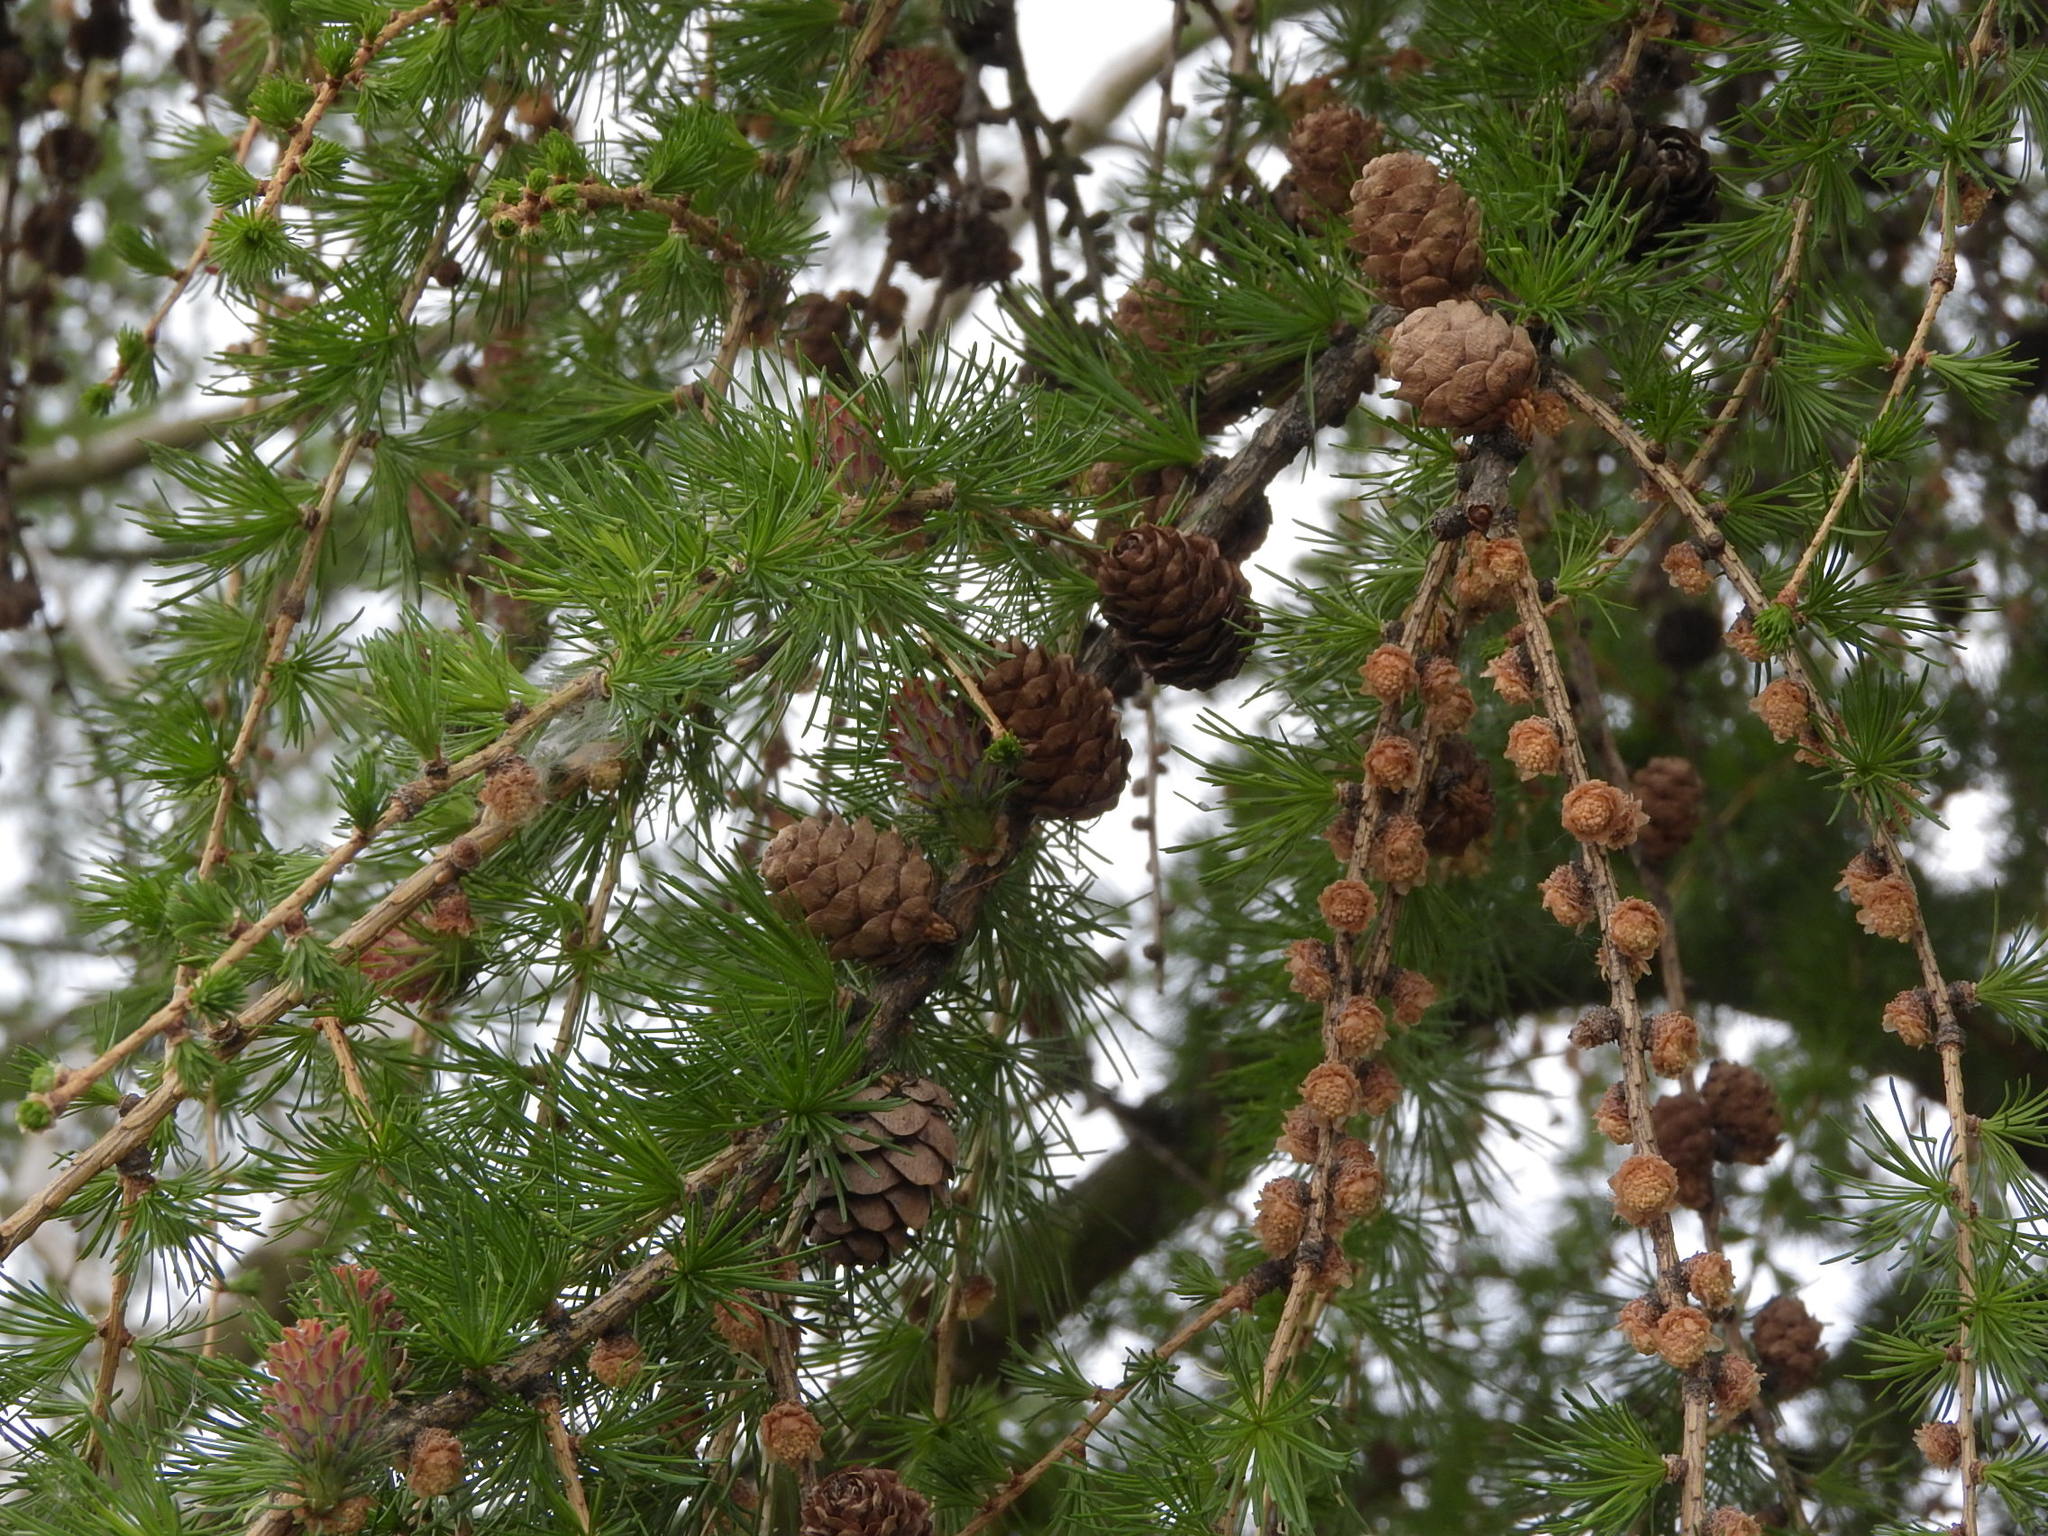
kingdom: Plantae
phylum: Tracheophyta
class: Pinopsida
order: Pinales
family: Pinaceae
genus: Larix
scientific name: Larix decidua
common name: European larch
